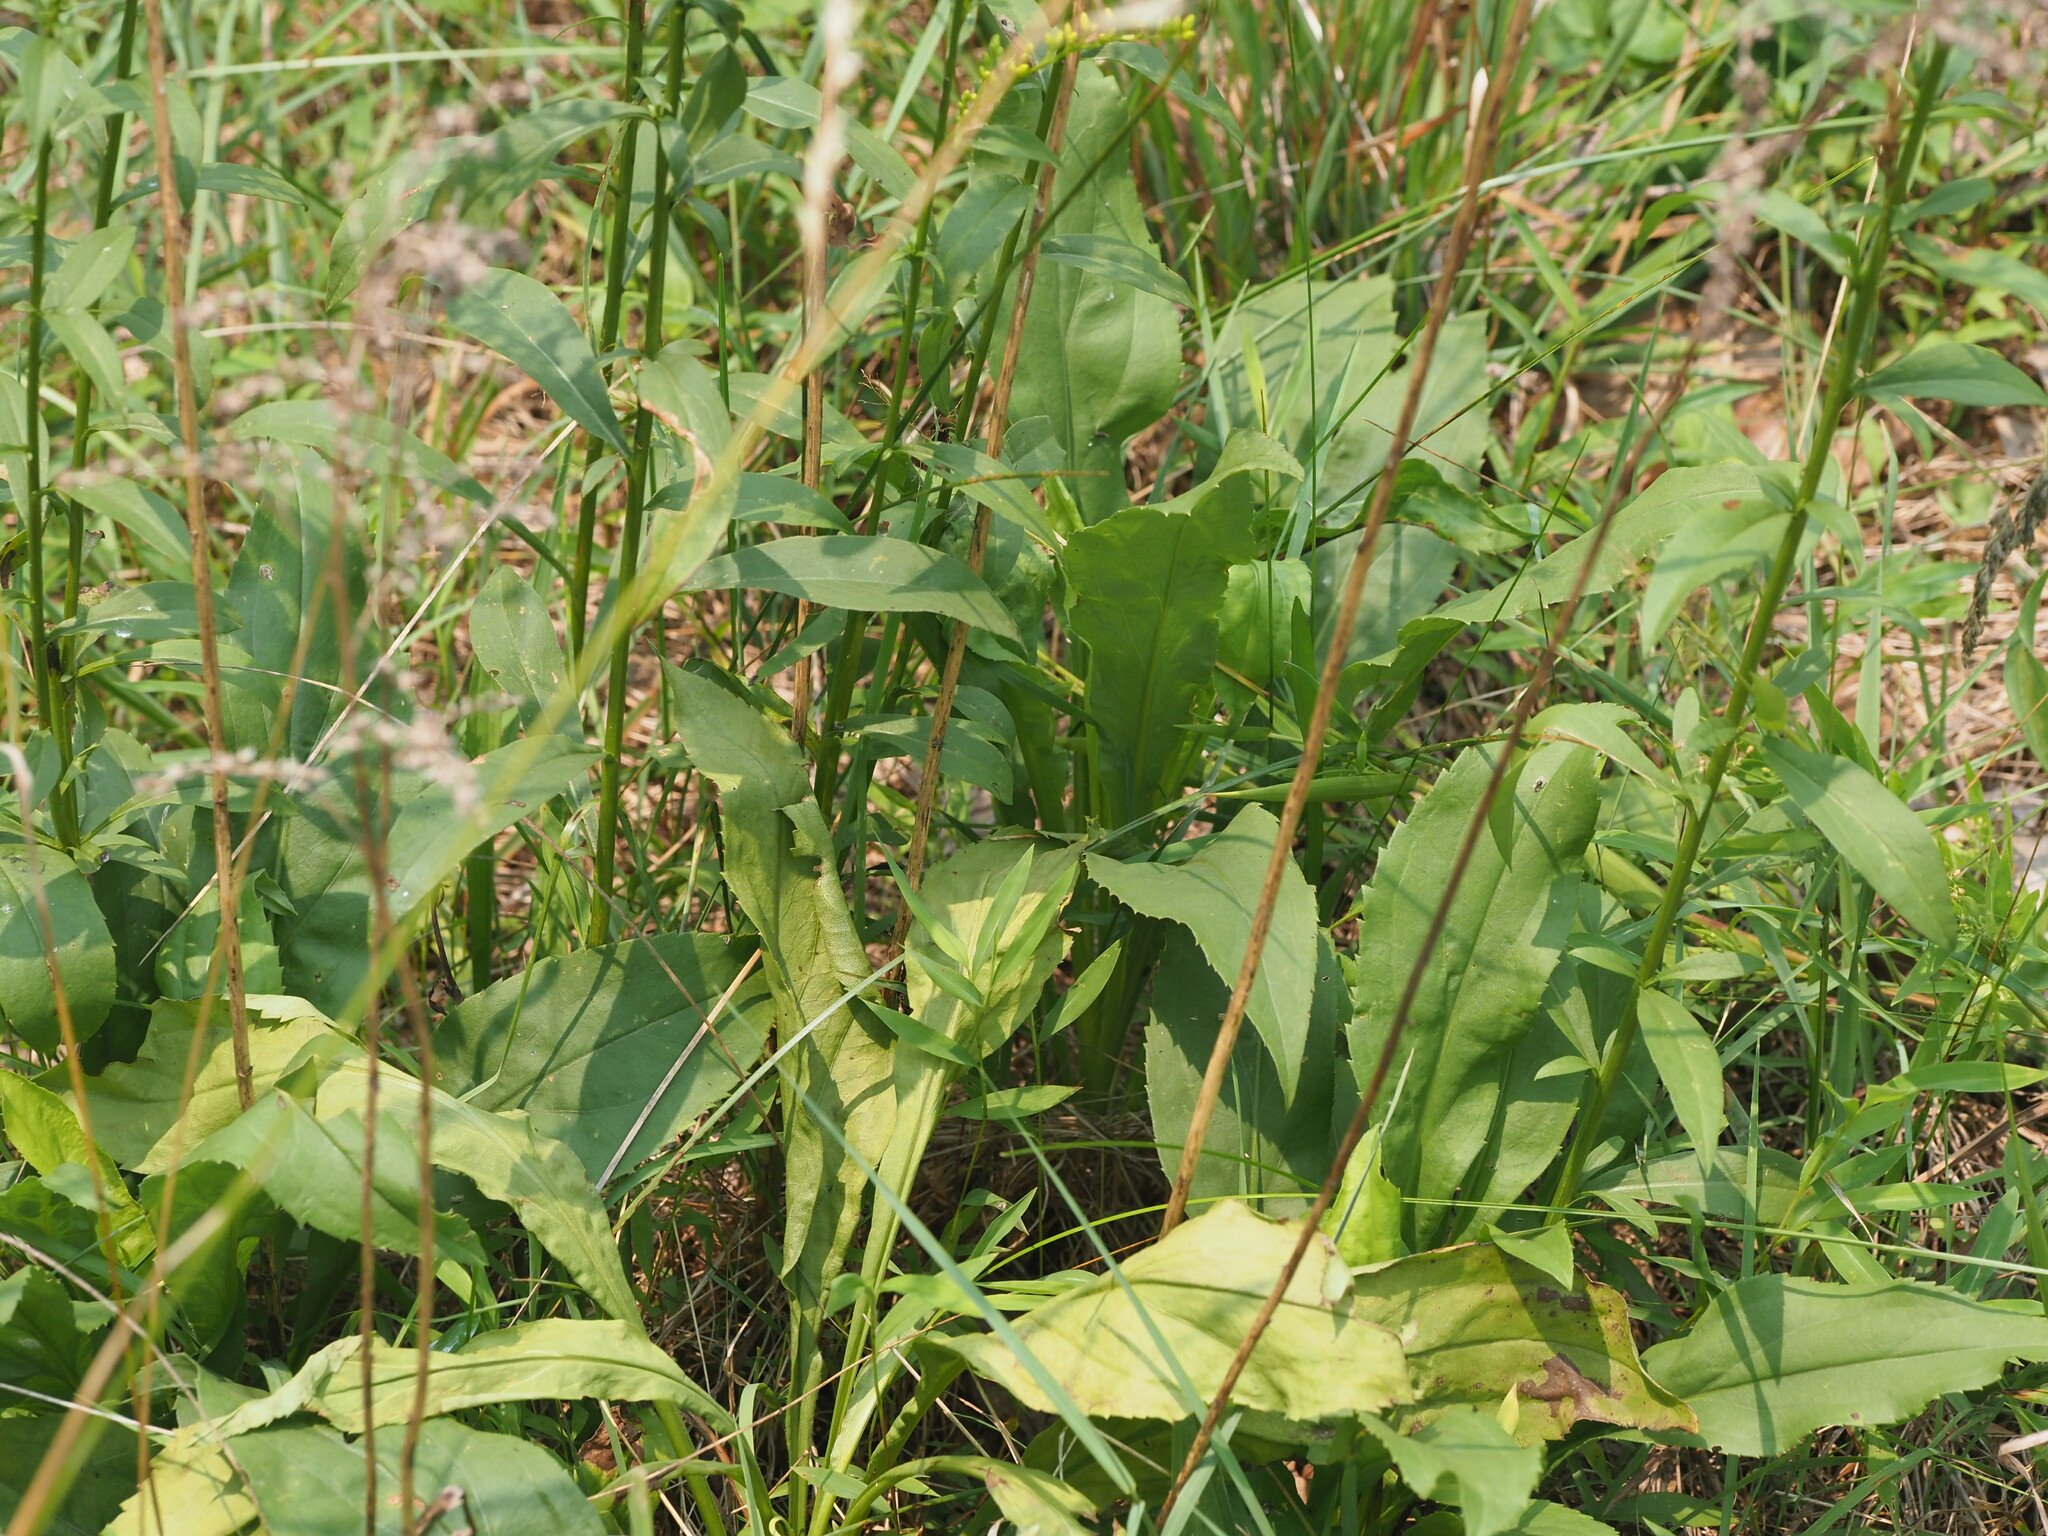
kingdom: Plantae
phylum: Tracheophyta
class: Magnoliopsida
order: Asterales
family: Asteraceae
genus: Solidago
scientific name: Solidago juncea
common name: Early goldenrod
